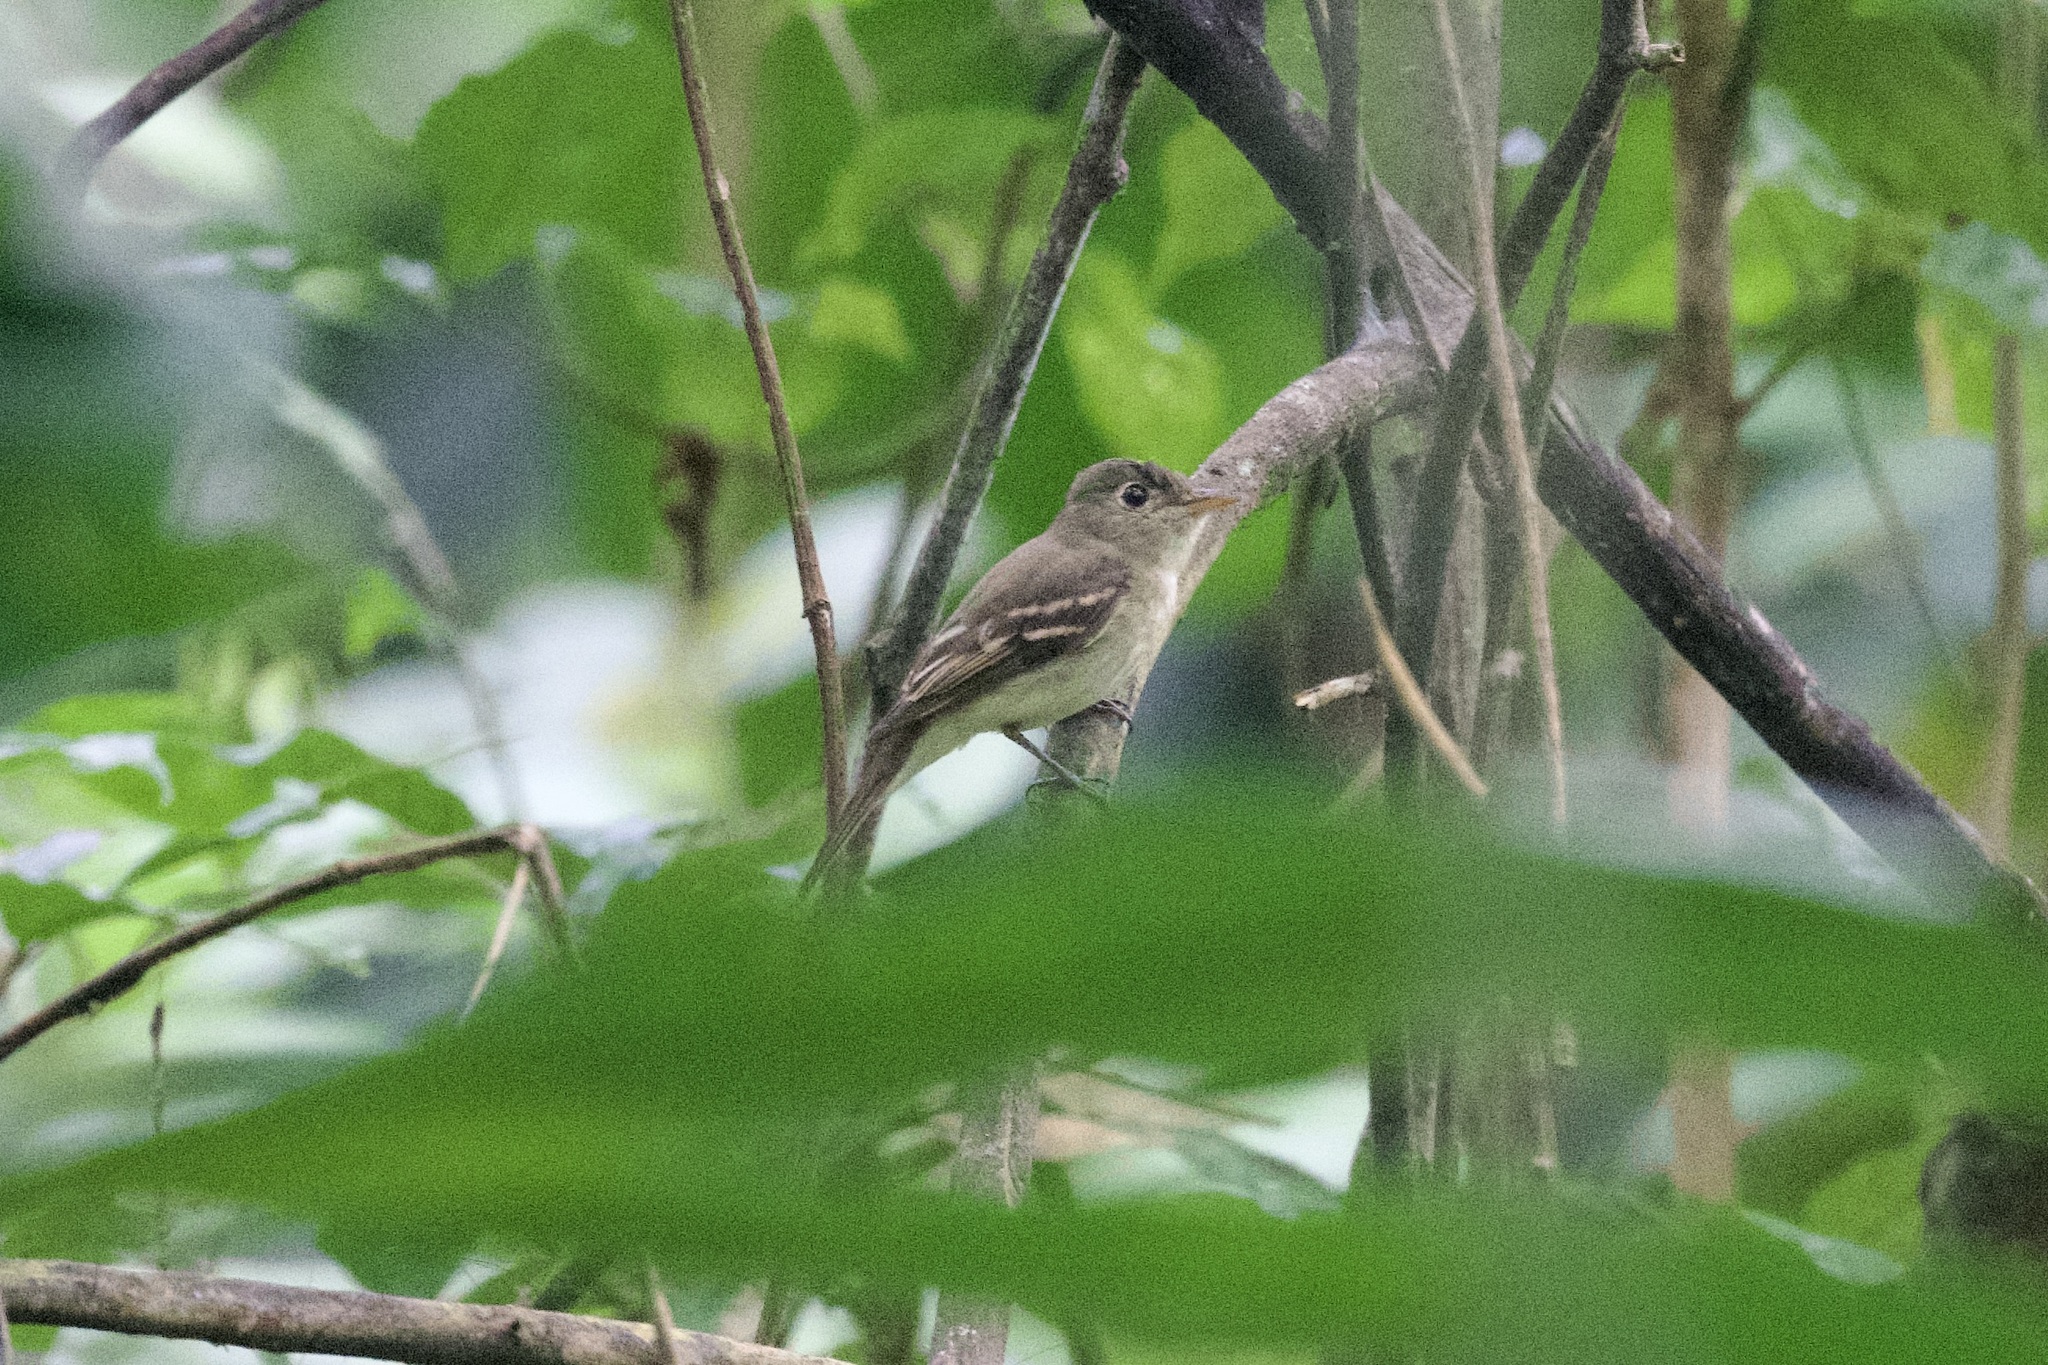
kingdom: Animalia
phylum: Chordata
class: Aves
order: Passeriformes
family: Tyrannidae
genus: Empidonax
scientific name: Empidonax virescens
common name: Acadian flycatcher
